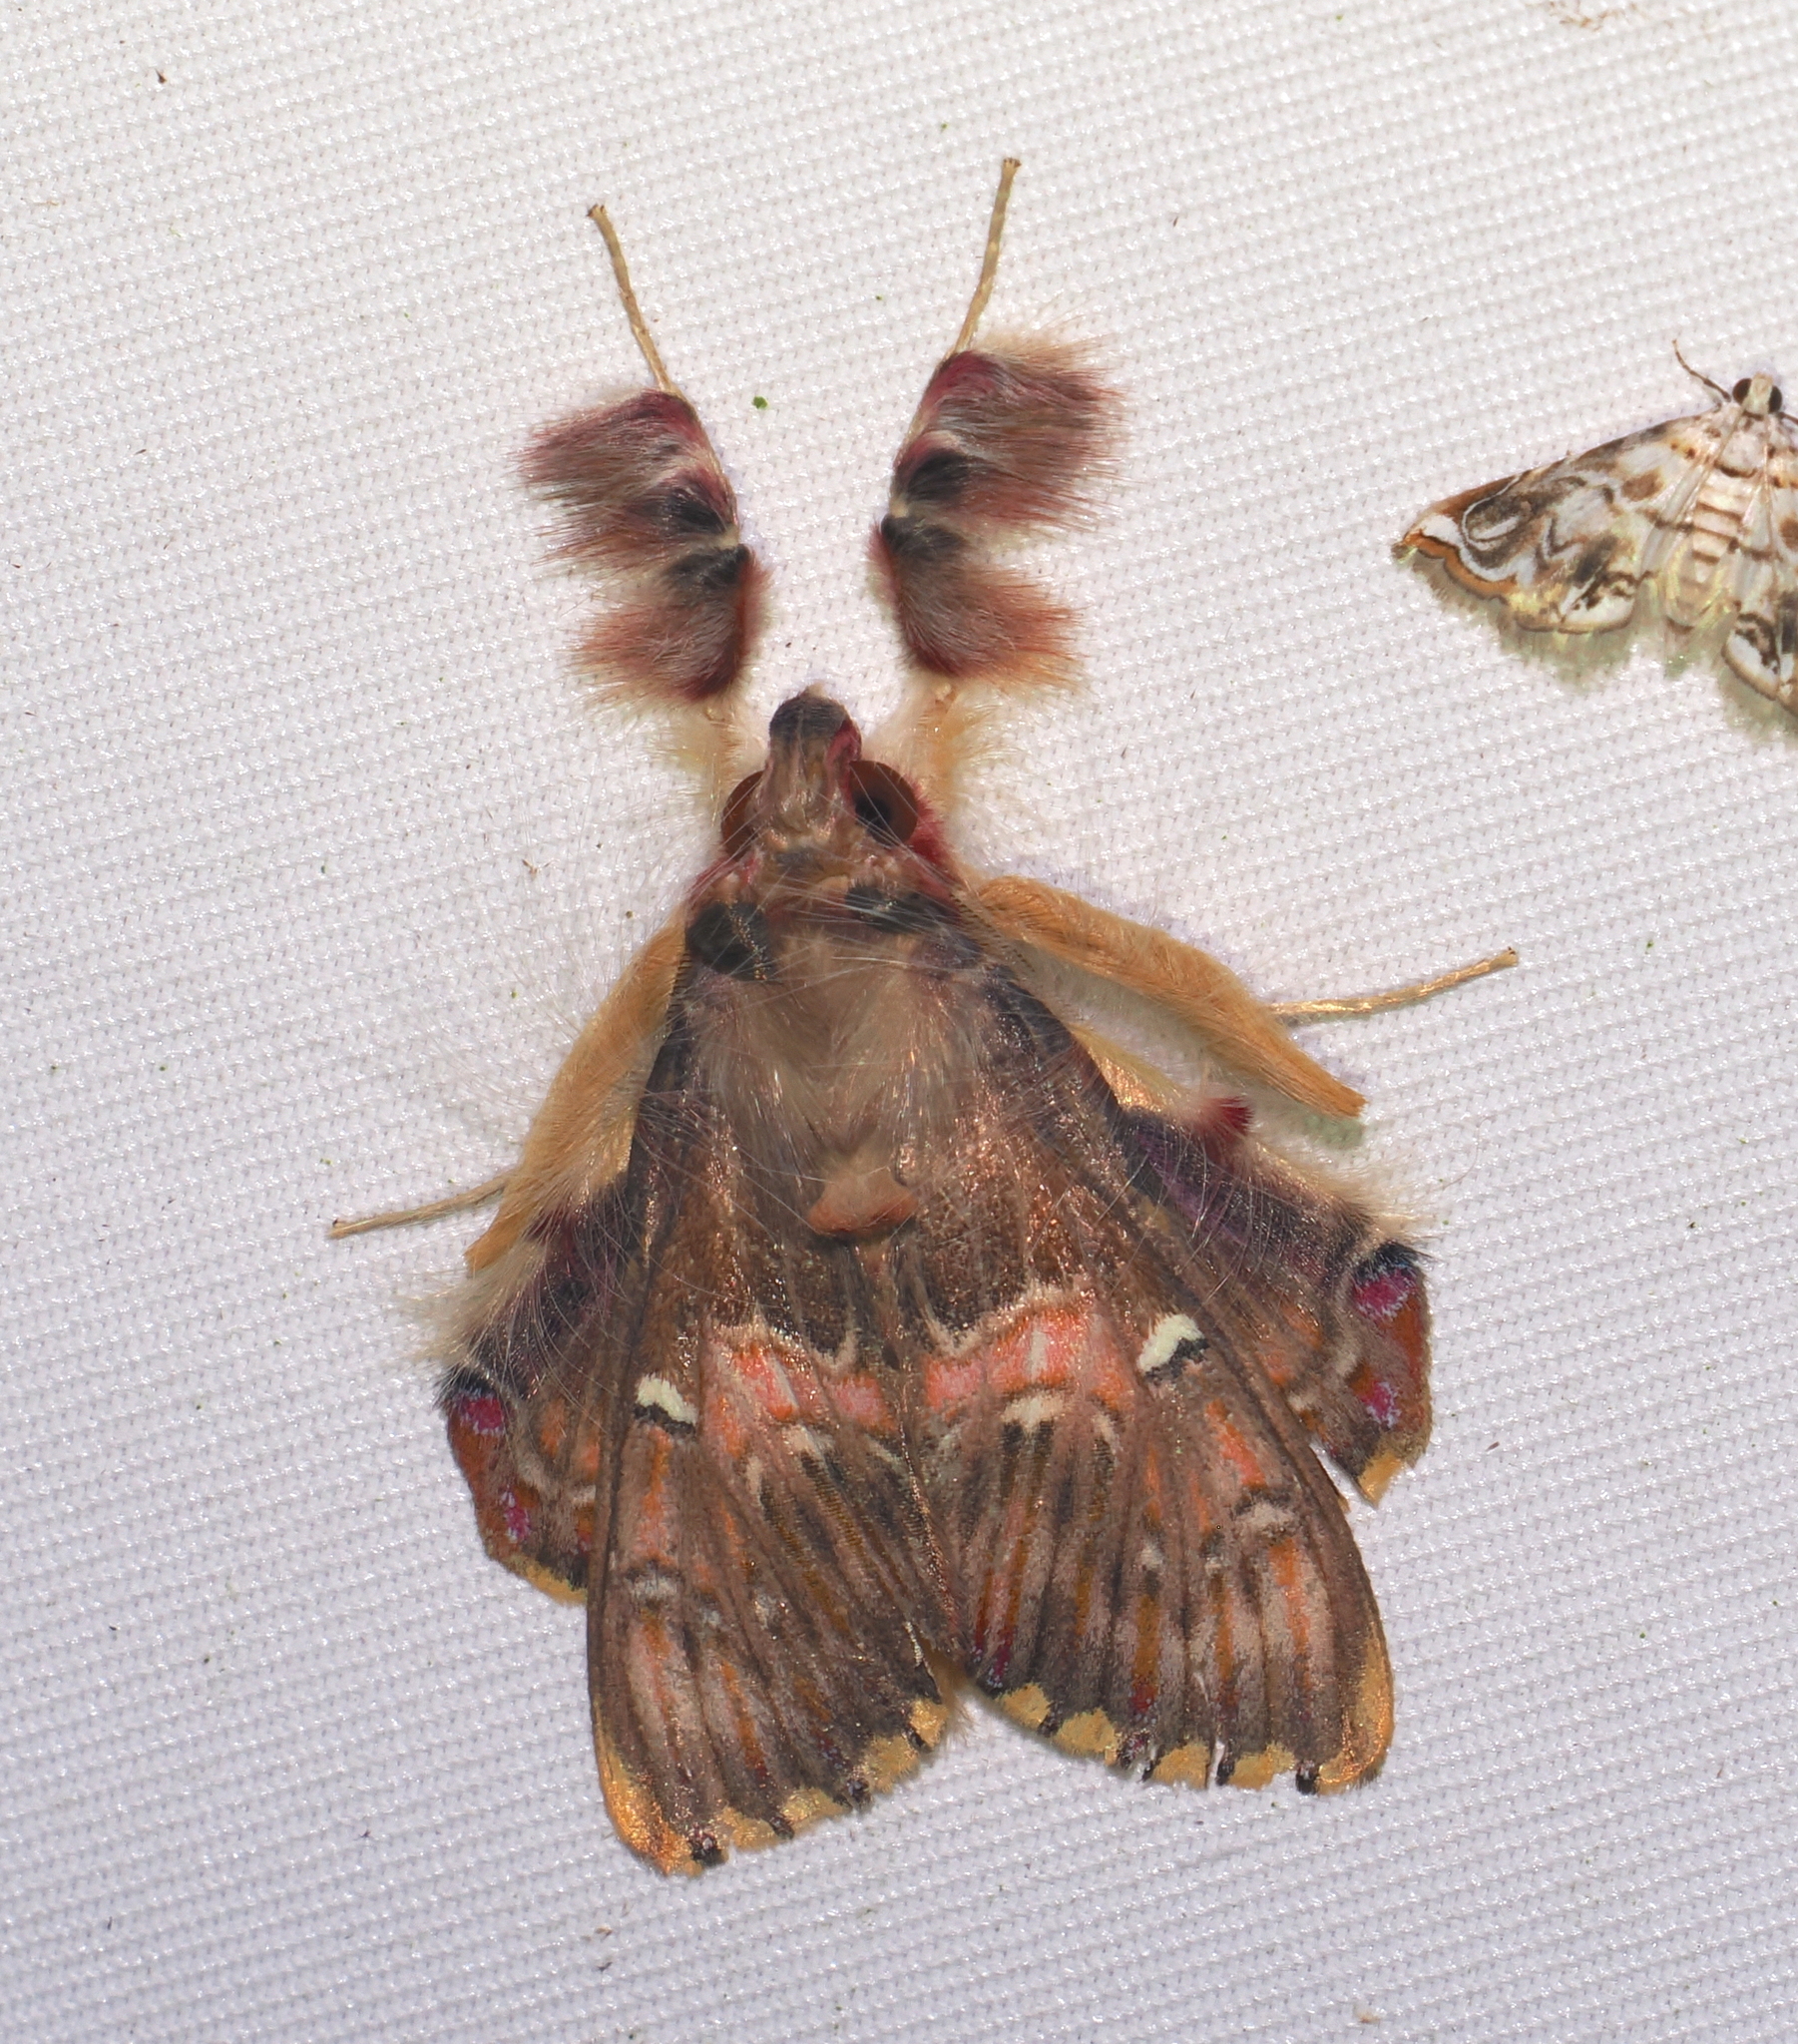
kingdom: Animalia
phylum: Arthropoda
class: Insecta
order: Lepidoptera
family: Erebidae
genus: Sosxetra
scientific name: Sosxetra grata
